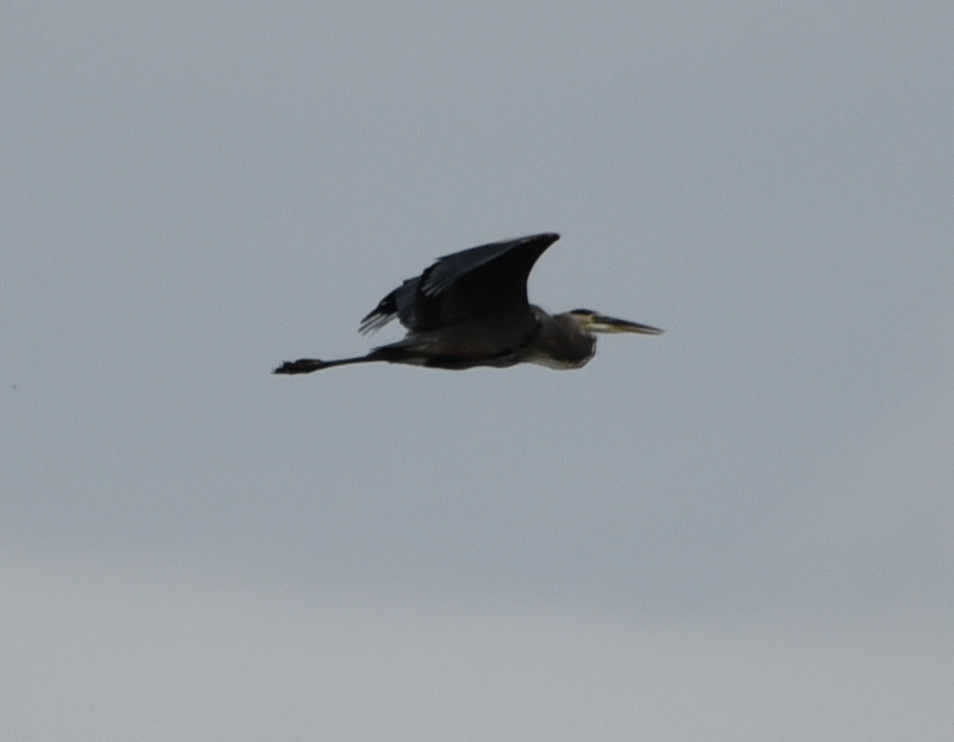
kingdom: Animalia
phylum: Chordata
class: Aves
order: Pelecaniformes
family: Ardeidae
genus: Ardea
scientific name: Ardea herodias
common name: Great blue heron
